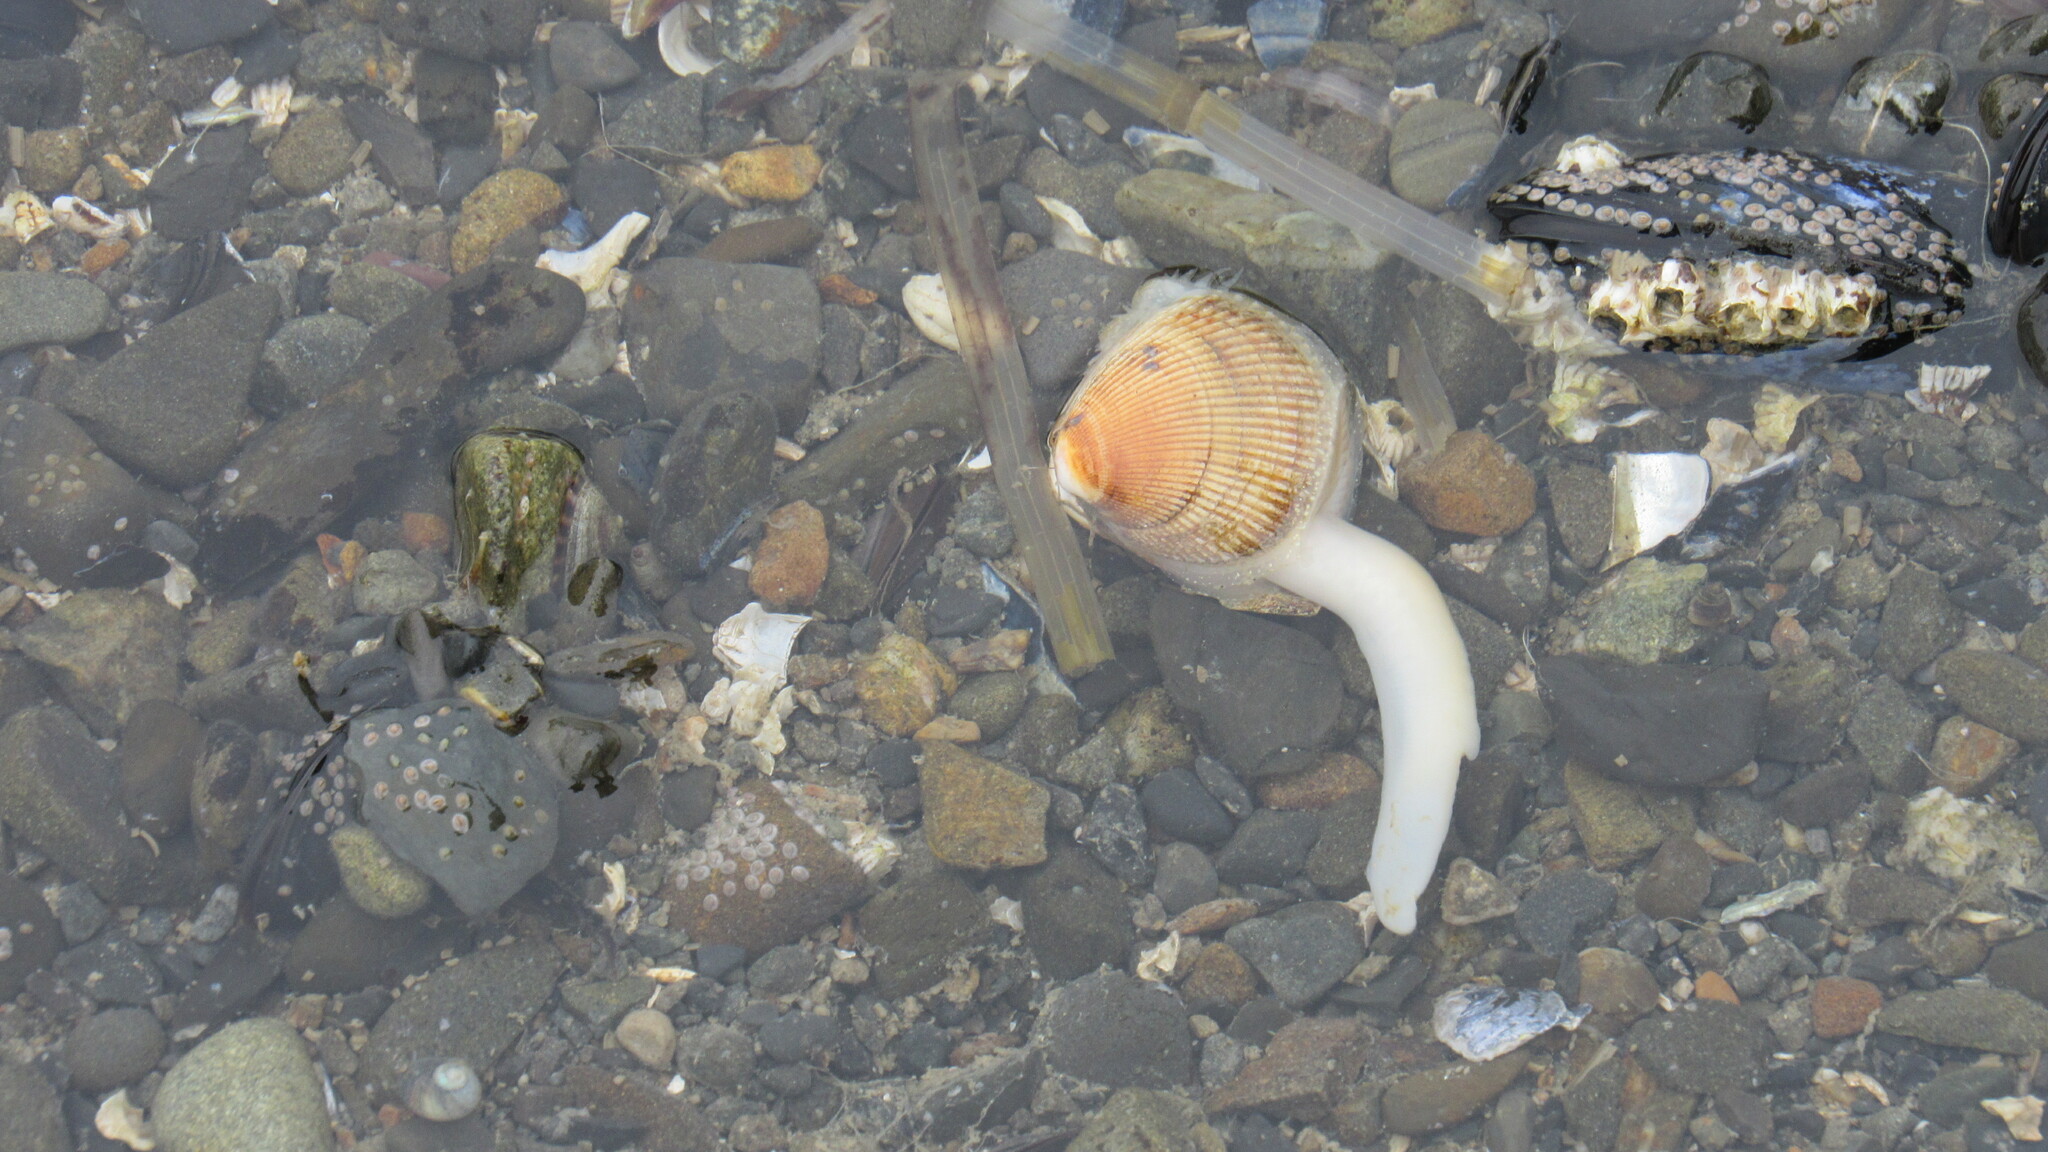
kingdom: Animalia
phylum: Mollusca
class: Bivalvia
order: Cardiida
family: Cardiidae
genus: Clinocardium
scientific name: Clinocardium nuttallii
